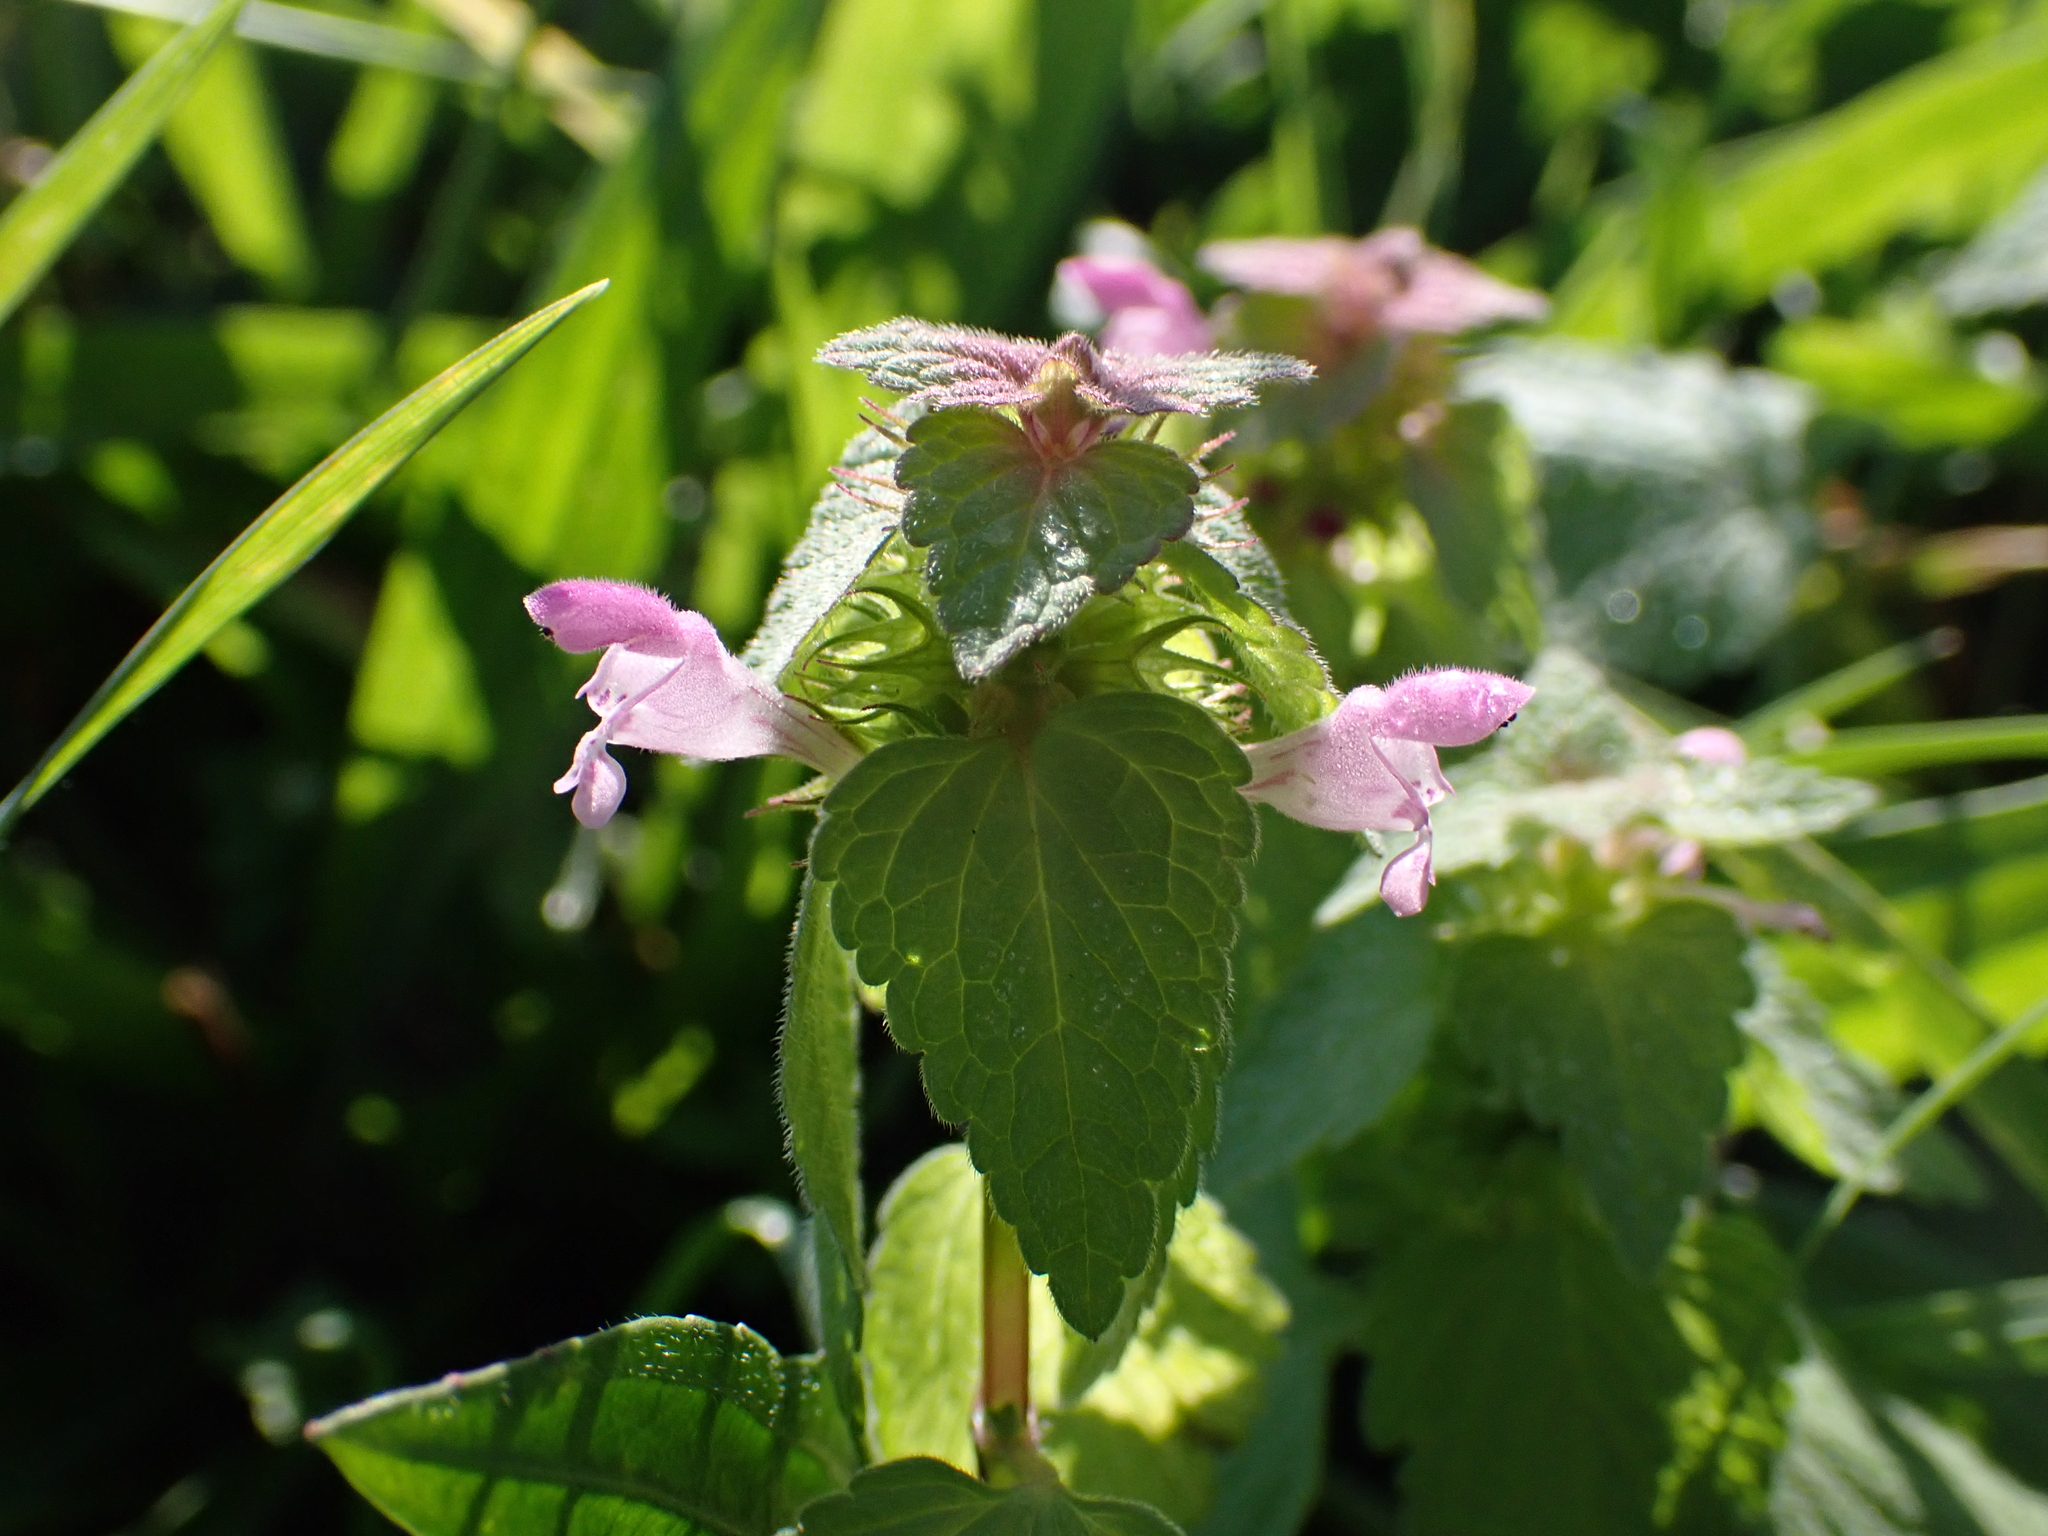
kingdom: Plantae
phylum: Tracheophyta
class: Magnoliopsida
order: Lamiales
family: Lamiaceae
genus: Lamium
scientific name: Lamium purpureum
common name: Red dead-nettle
